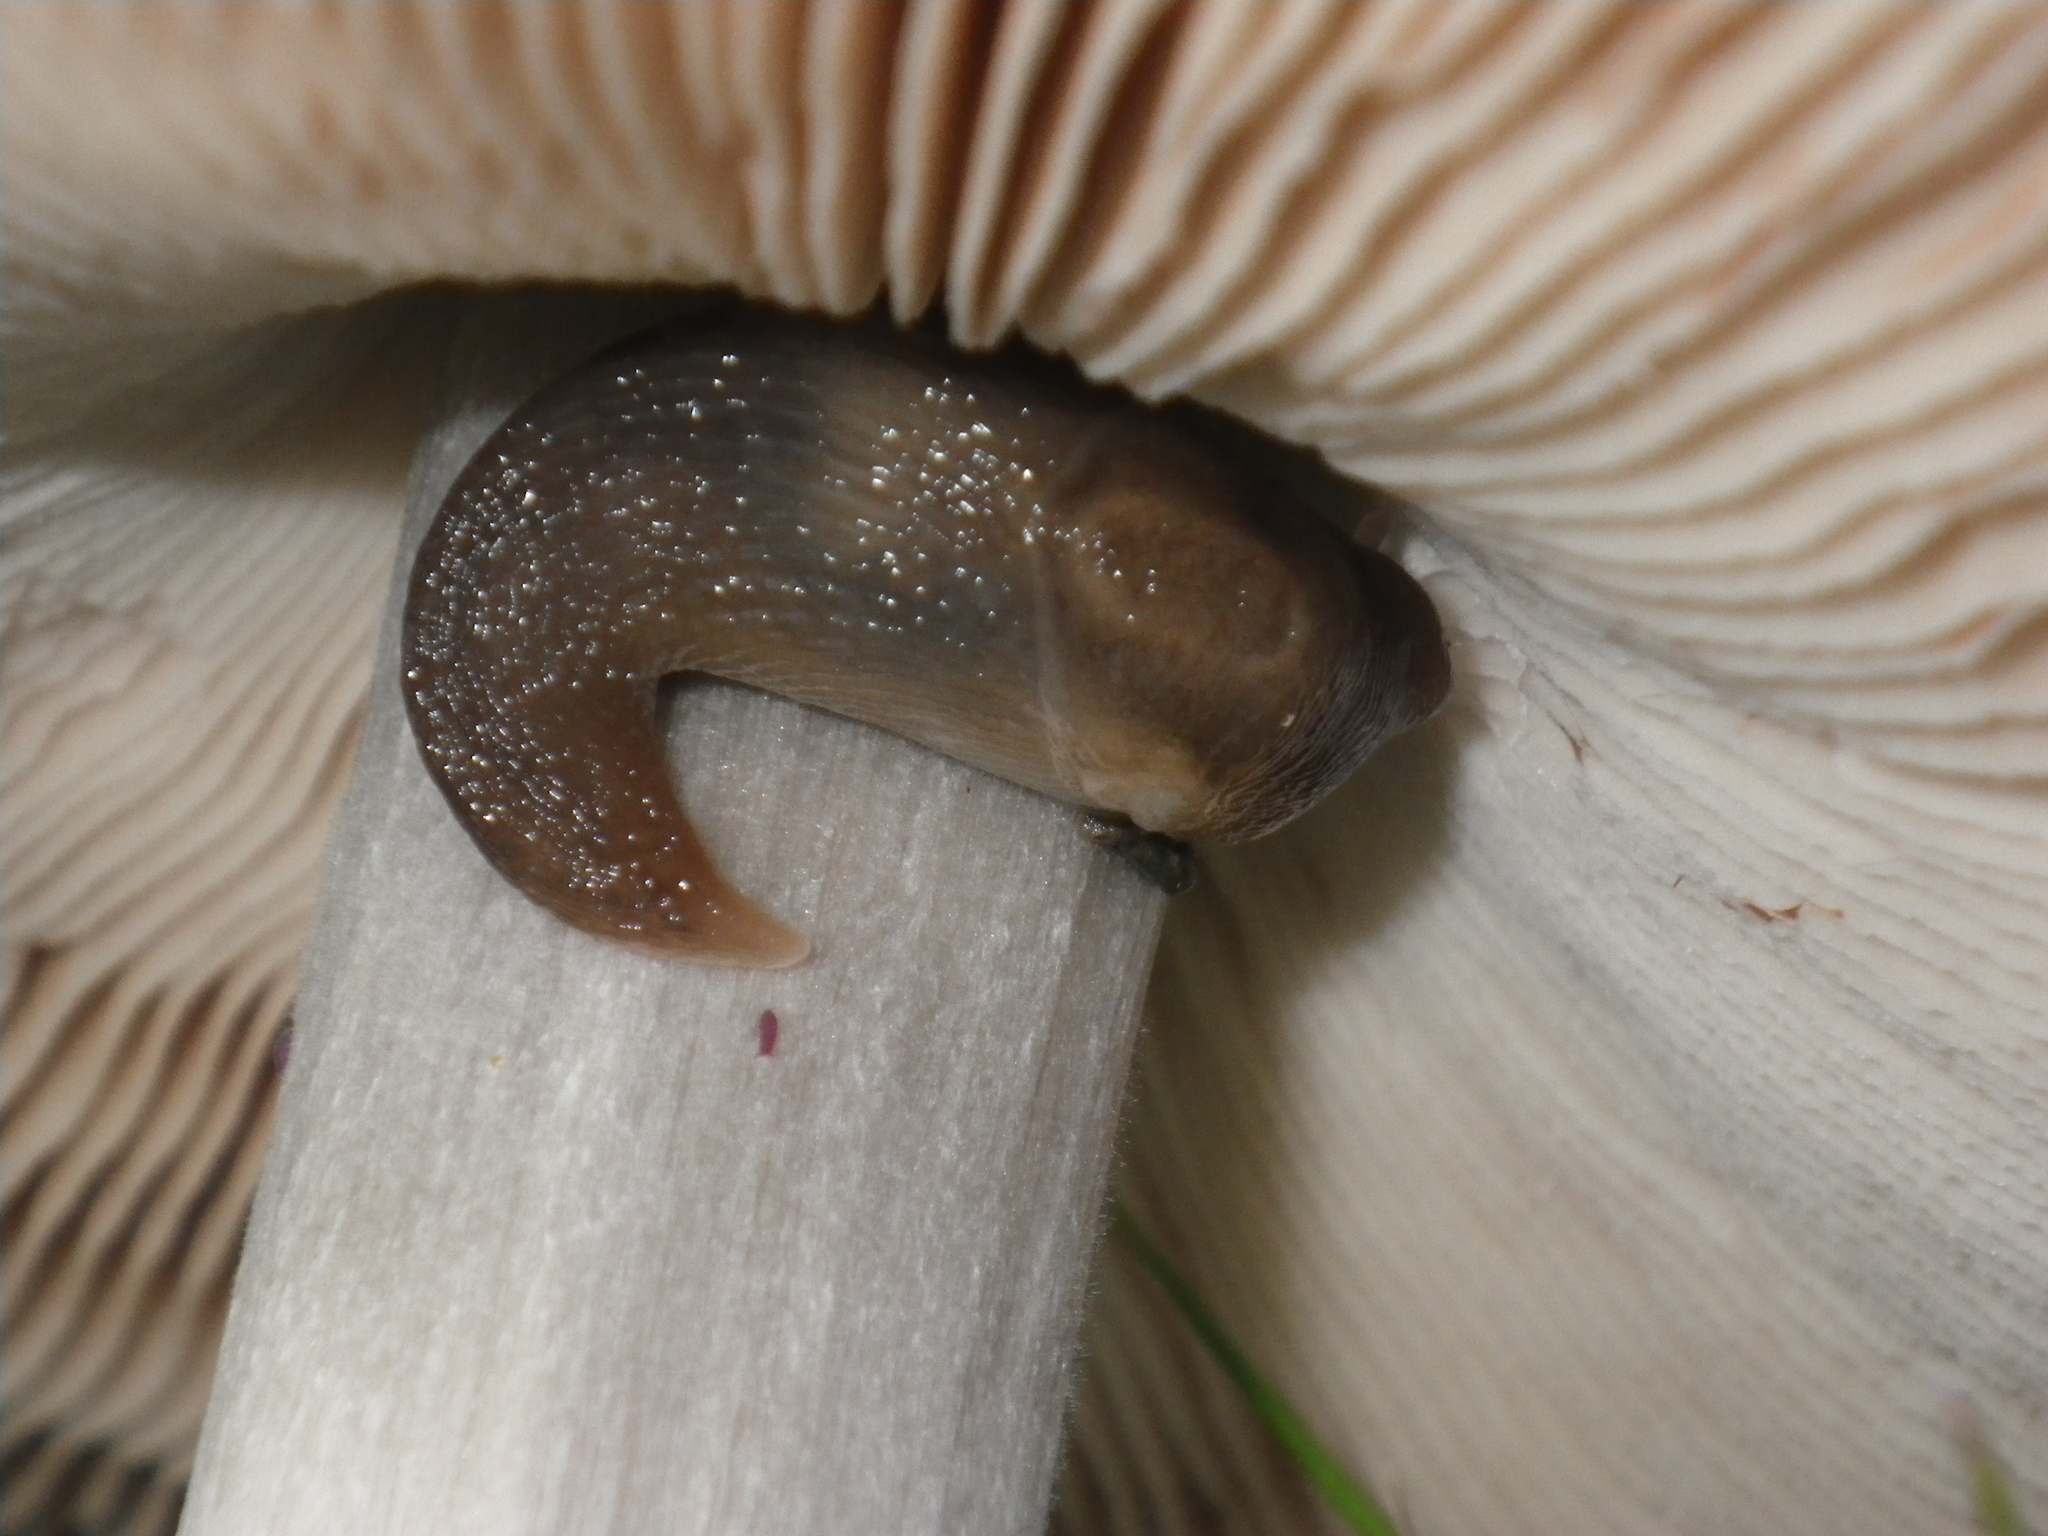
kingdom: Animalia
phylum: Mollusca
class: Gastropoda
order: Stylommatophora
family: Agriolimacidae
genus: Deroceras
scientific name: Deroceras reticulatum
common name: Gray field slug
